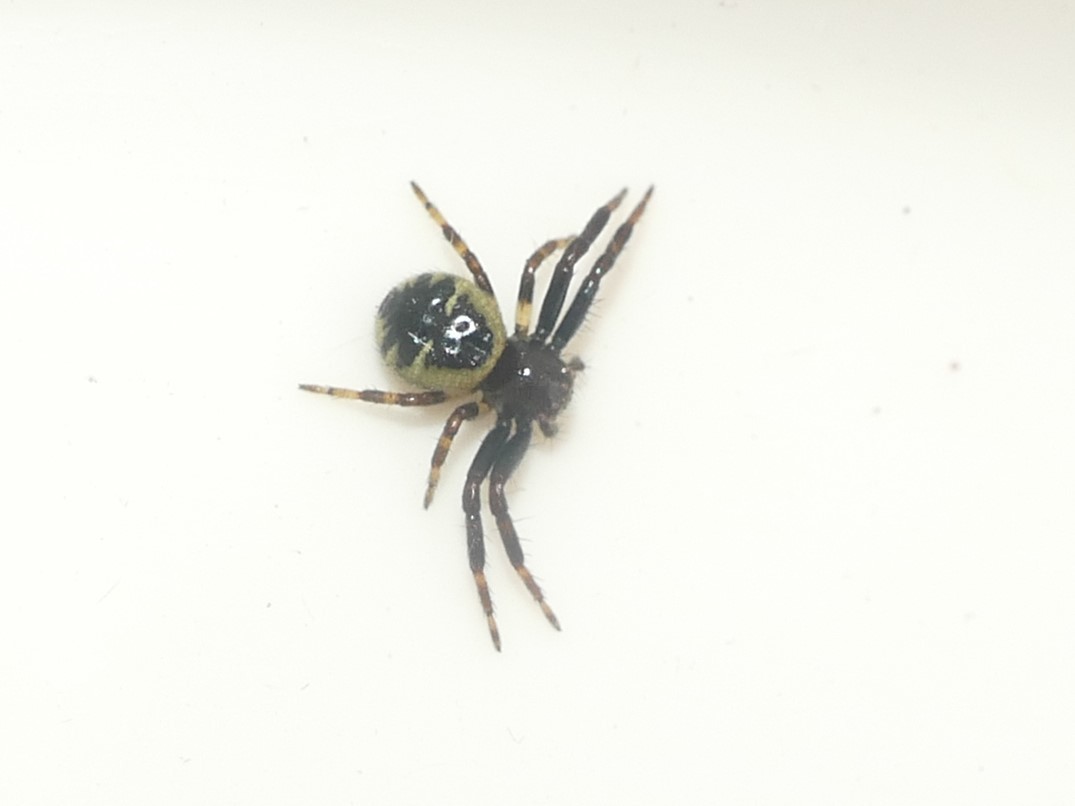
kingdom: Animalia
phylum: Arthropoda
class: Arachnida
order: Araneae
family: Thomisidae
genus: Synema
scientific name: Synema globosum
